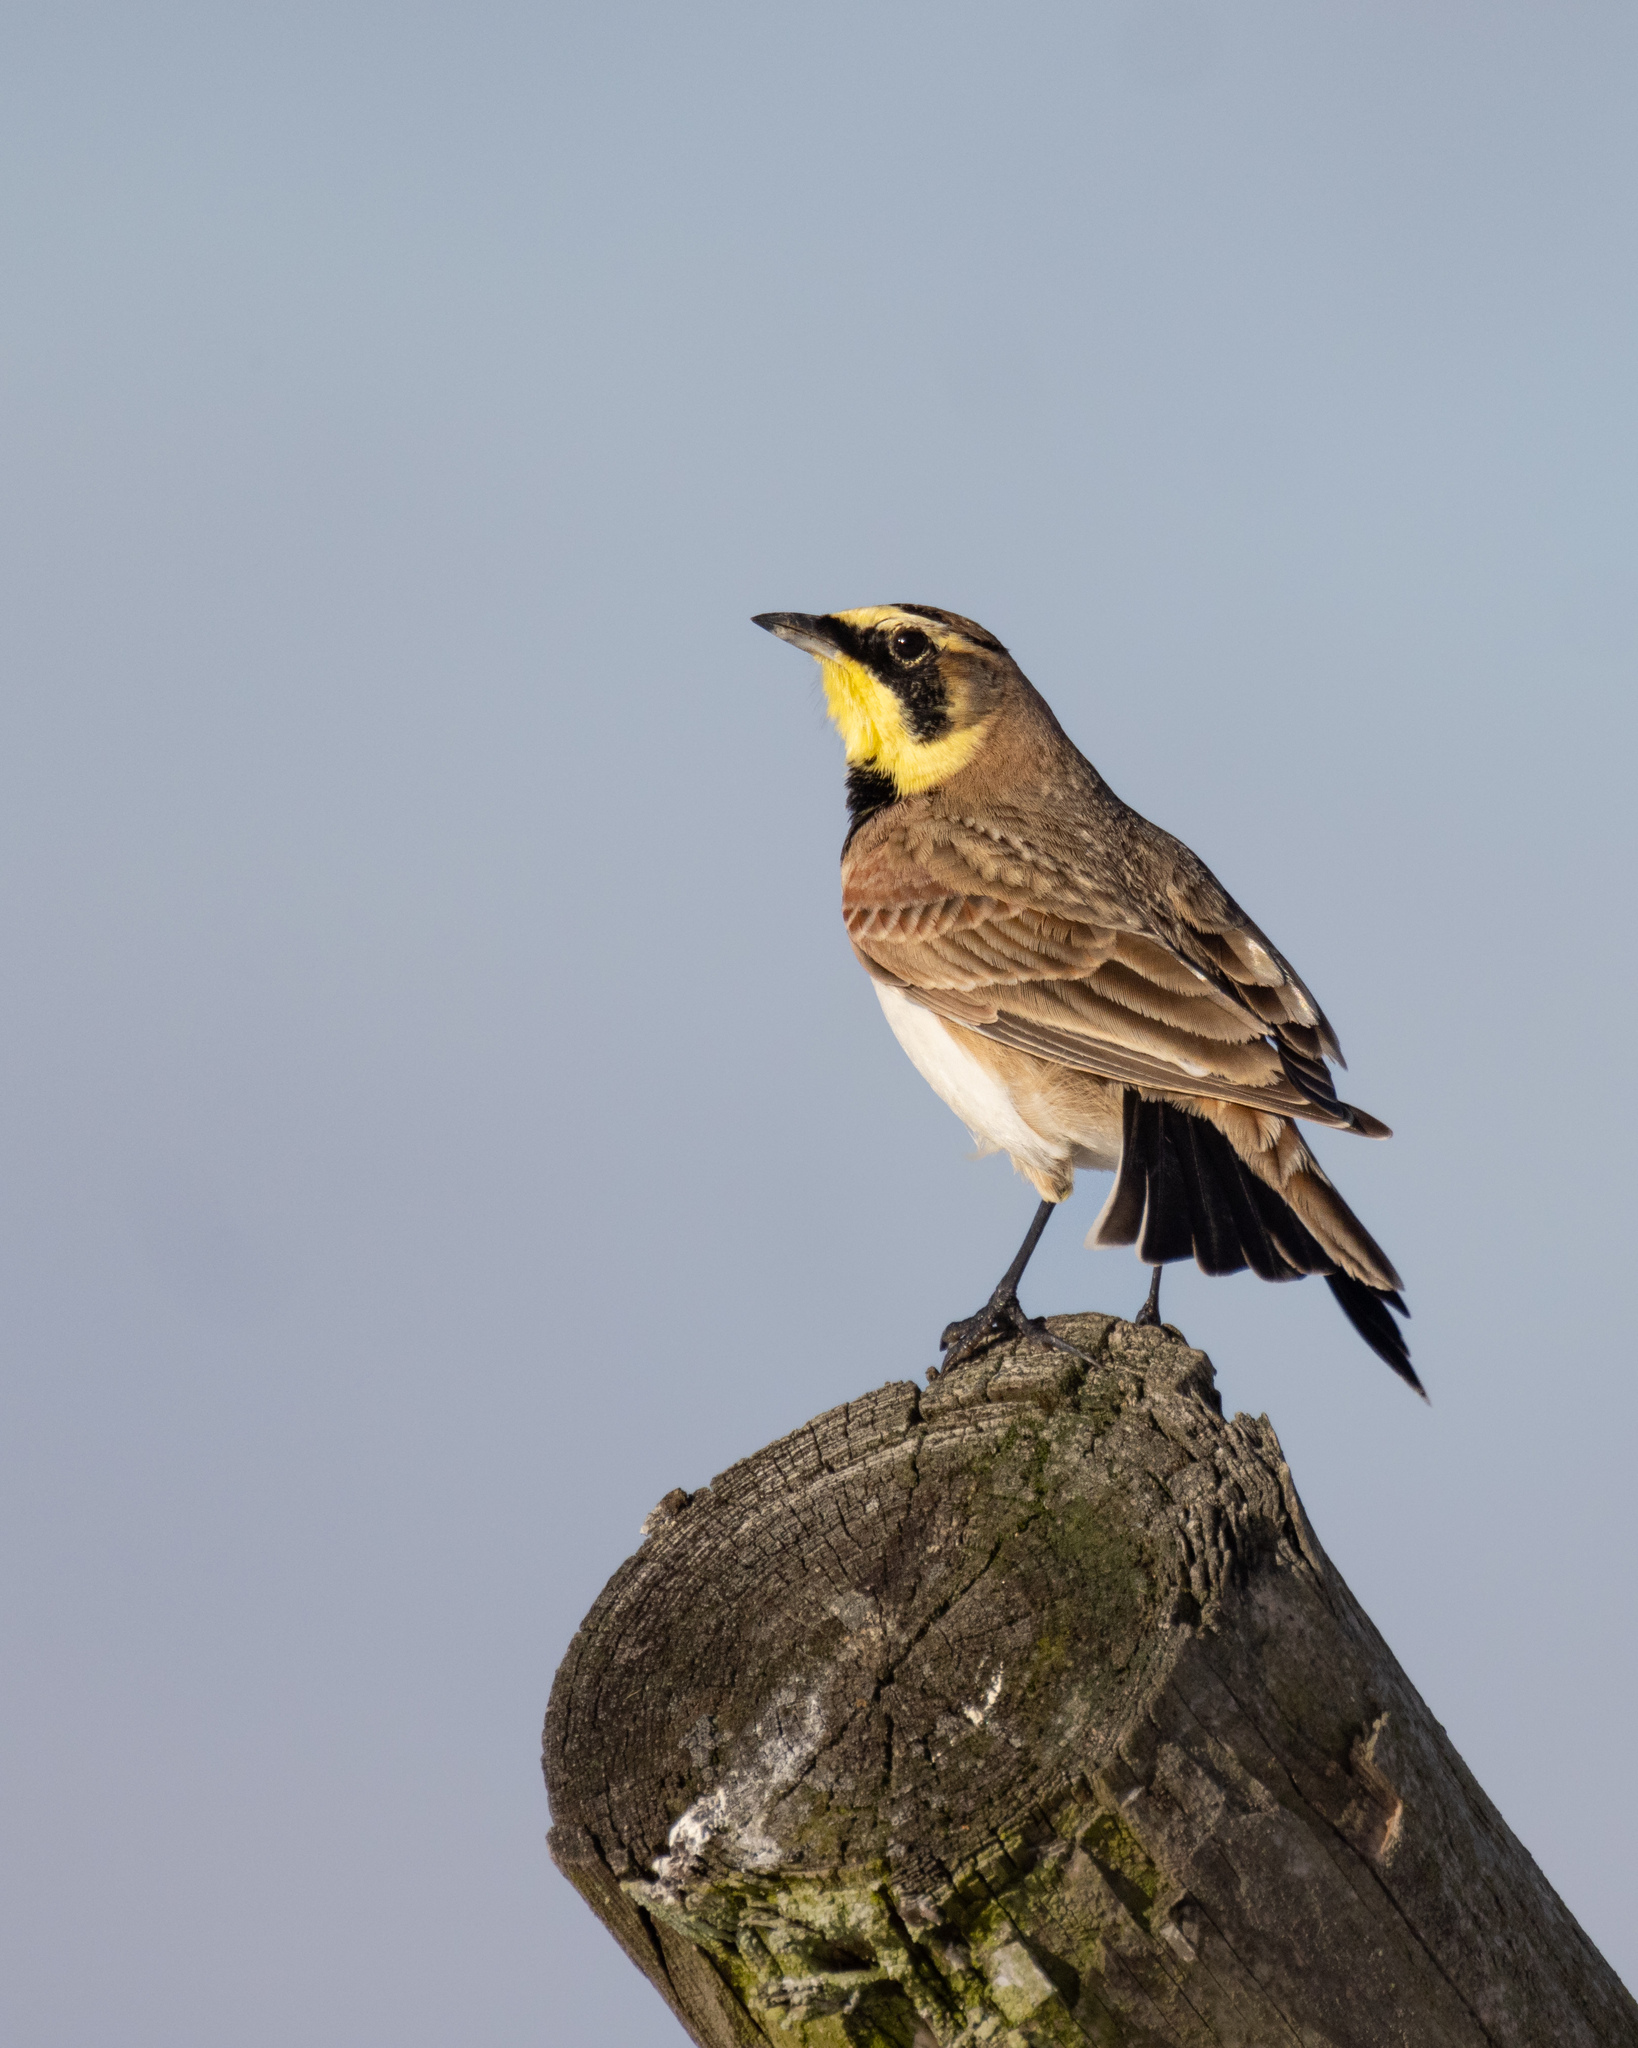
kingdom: Animalia
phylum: Chordata
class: Aves
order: Passeriformes
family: Alaudidae
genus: Eremophila
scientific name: Eremophila alpestris
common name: Horned lark
